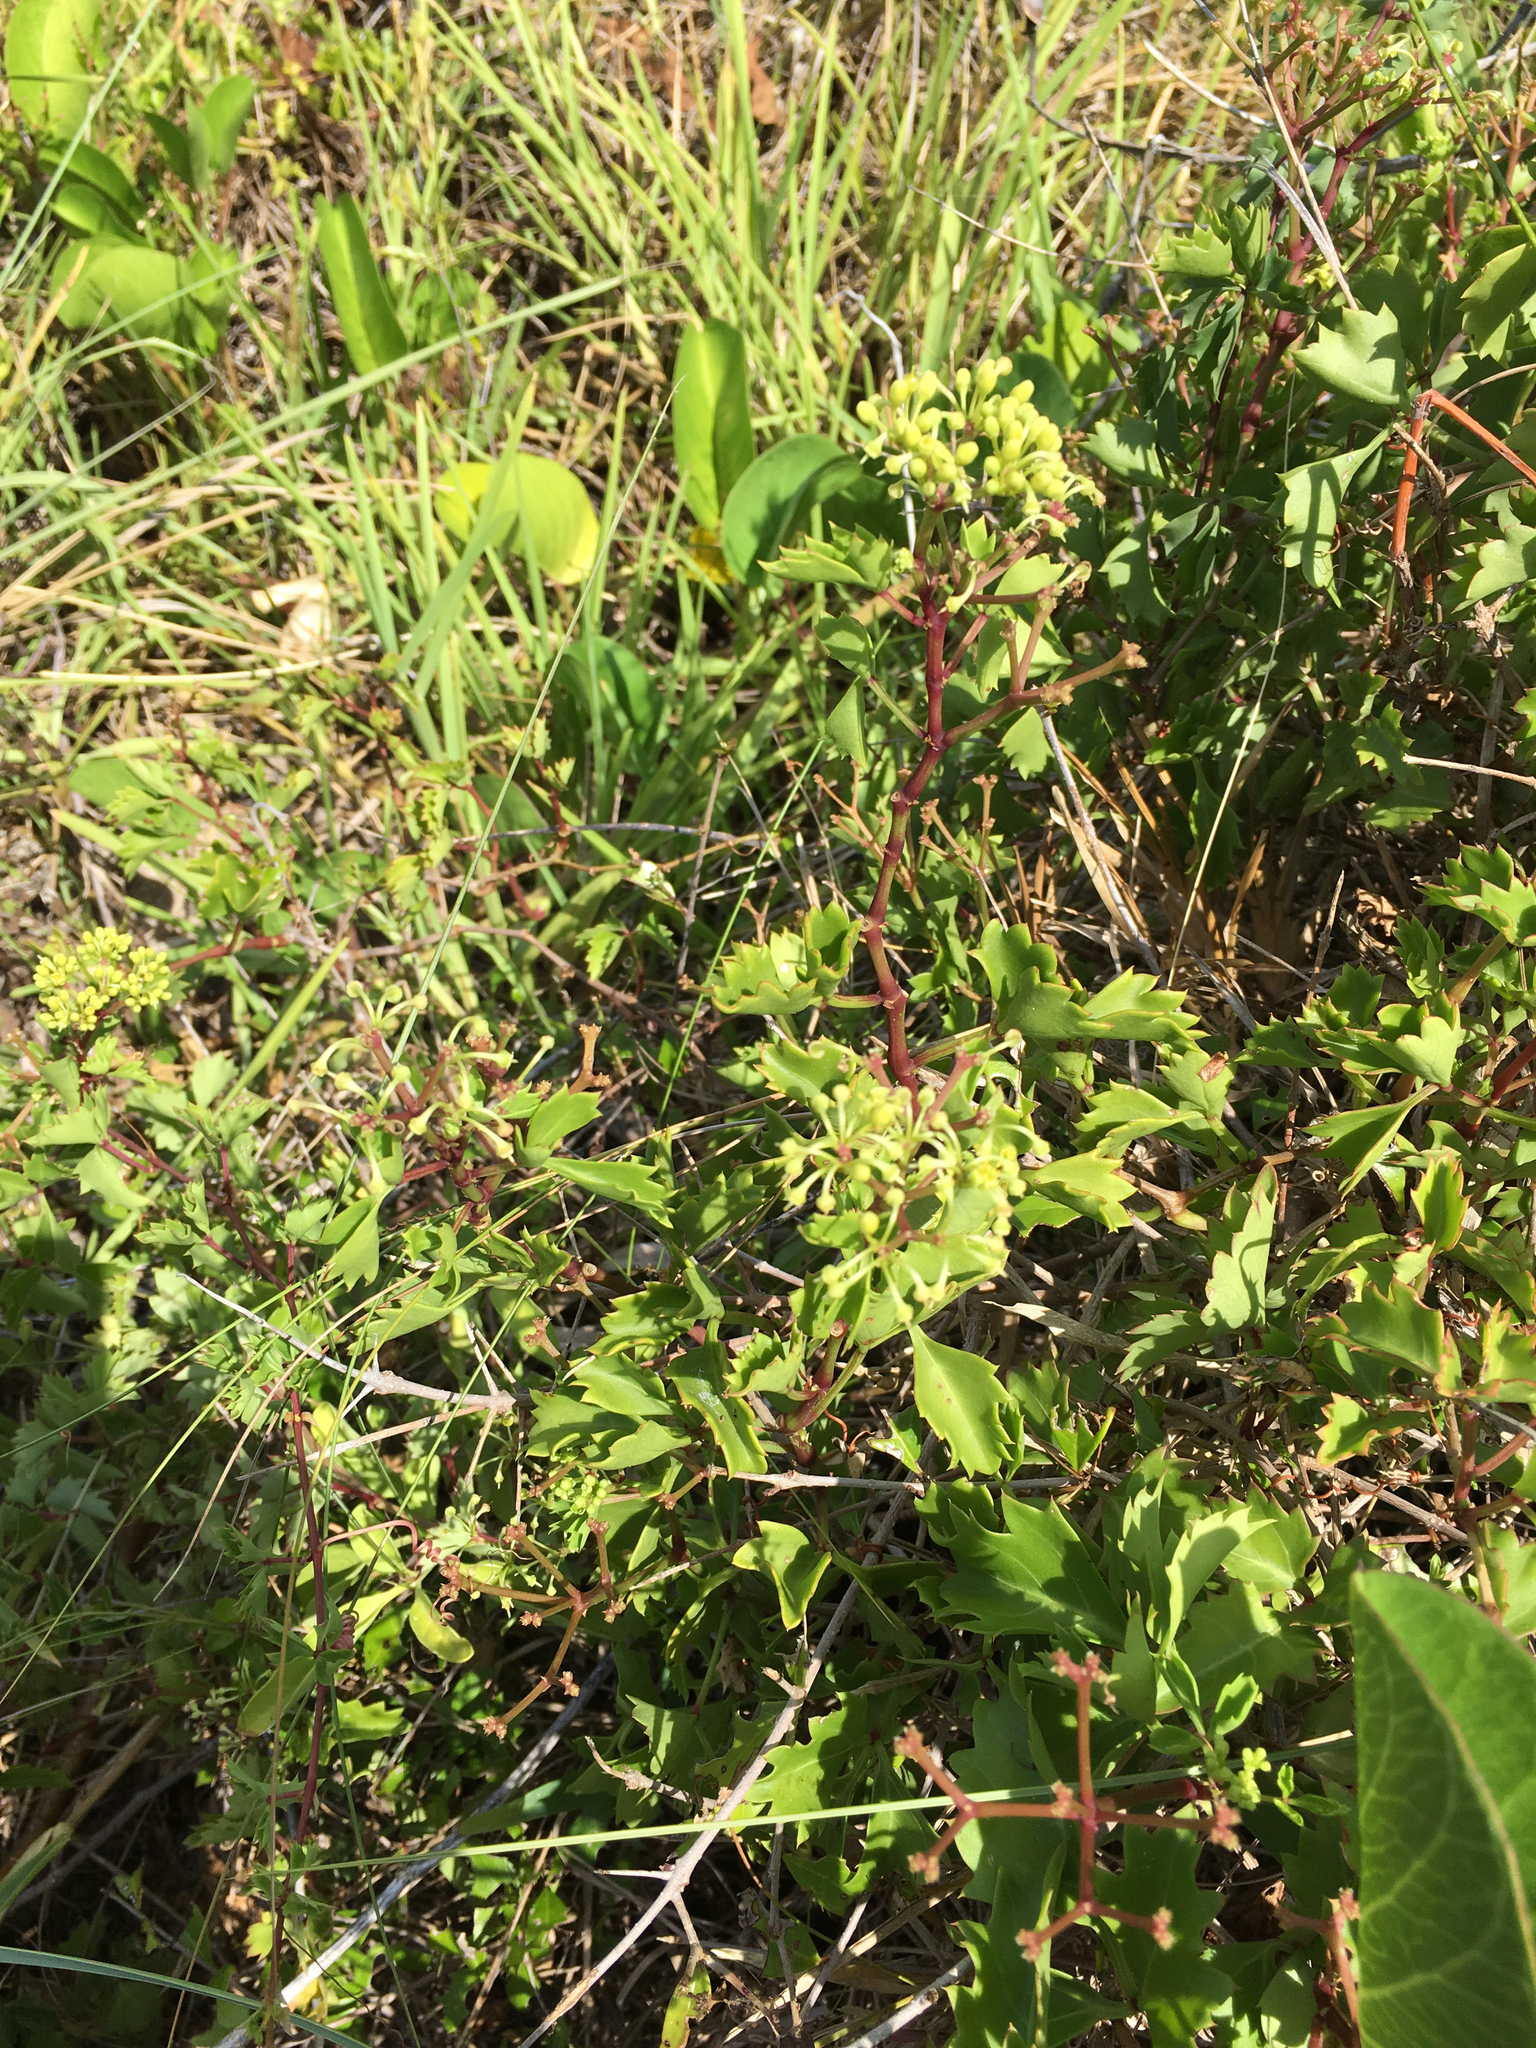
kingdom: Plantae
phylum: Tracheophyta
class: Magnoliopsida
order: Vitales
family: Vitaceae
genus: Cissus
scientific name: Cissus trifoliata
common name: Vine-sorrel
